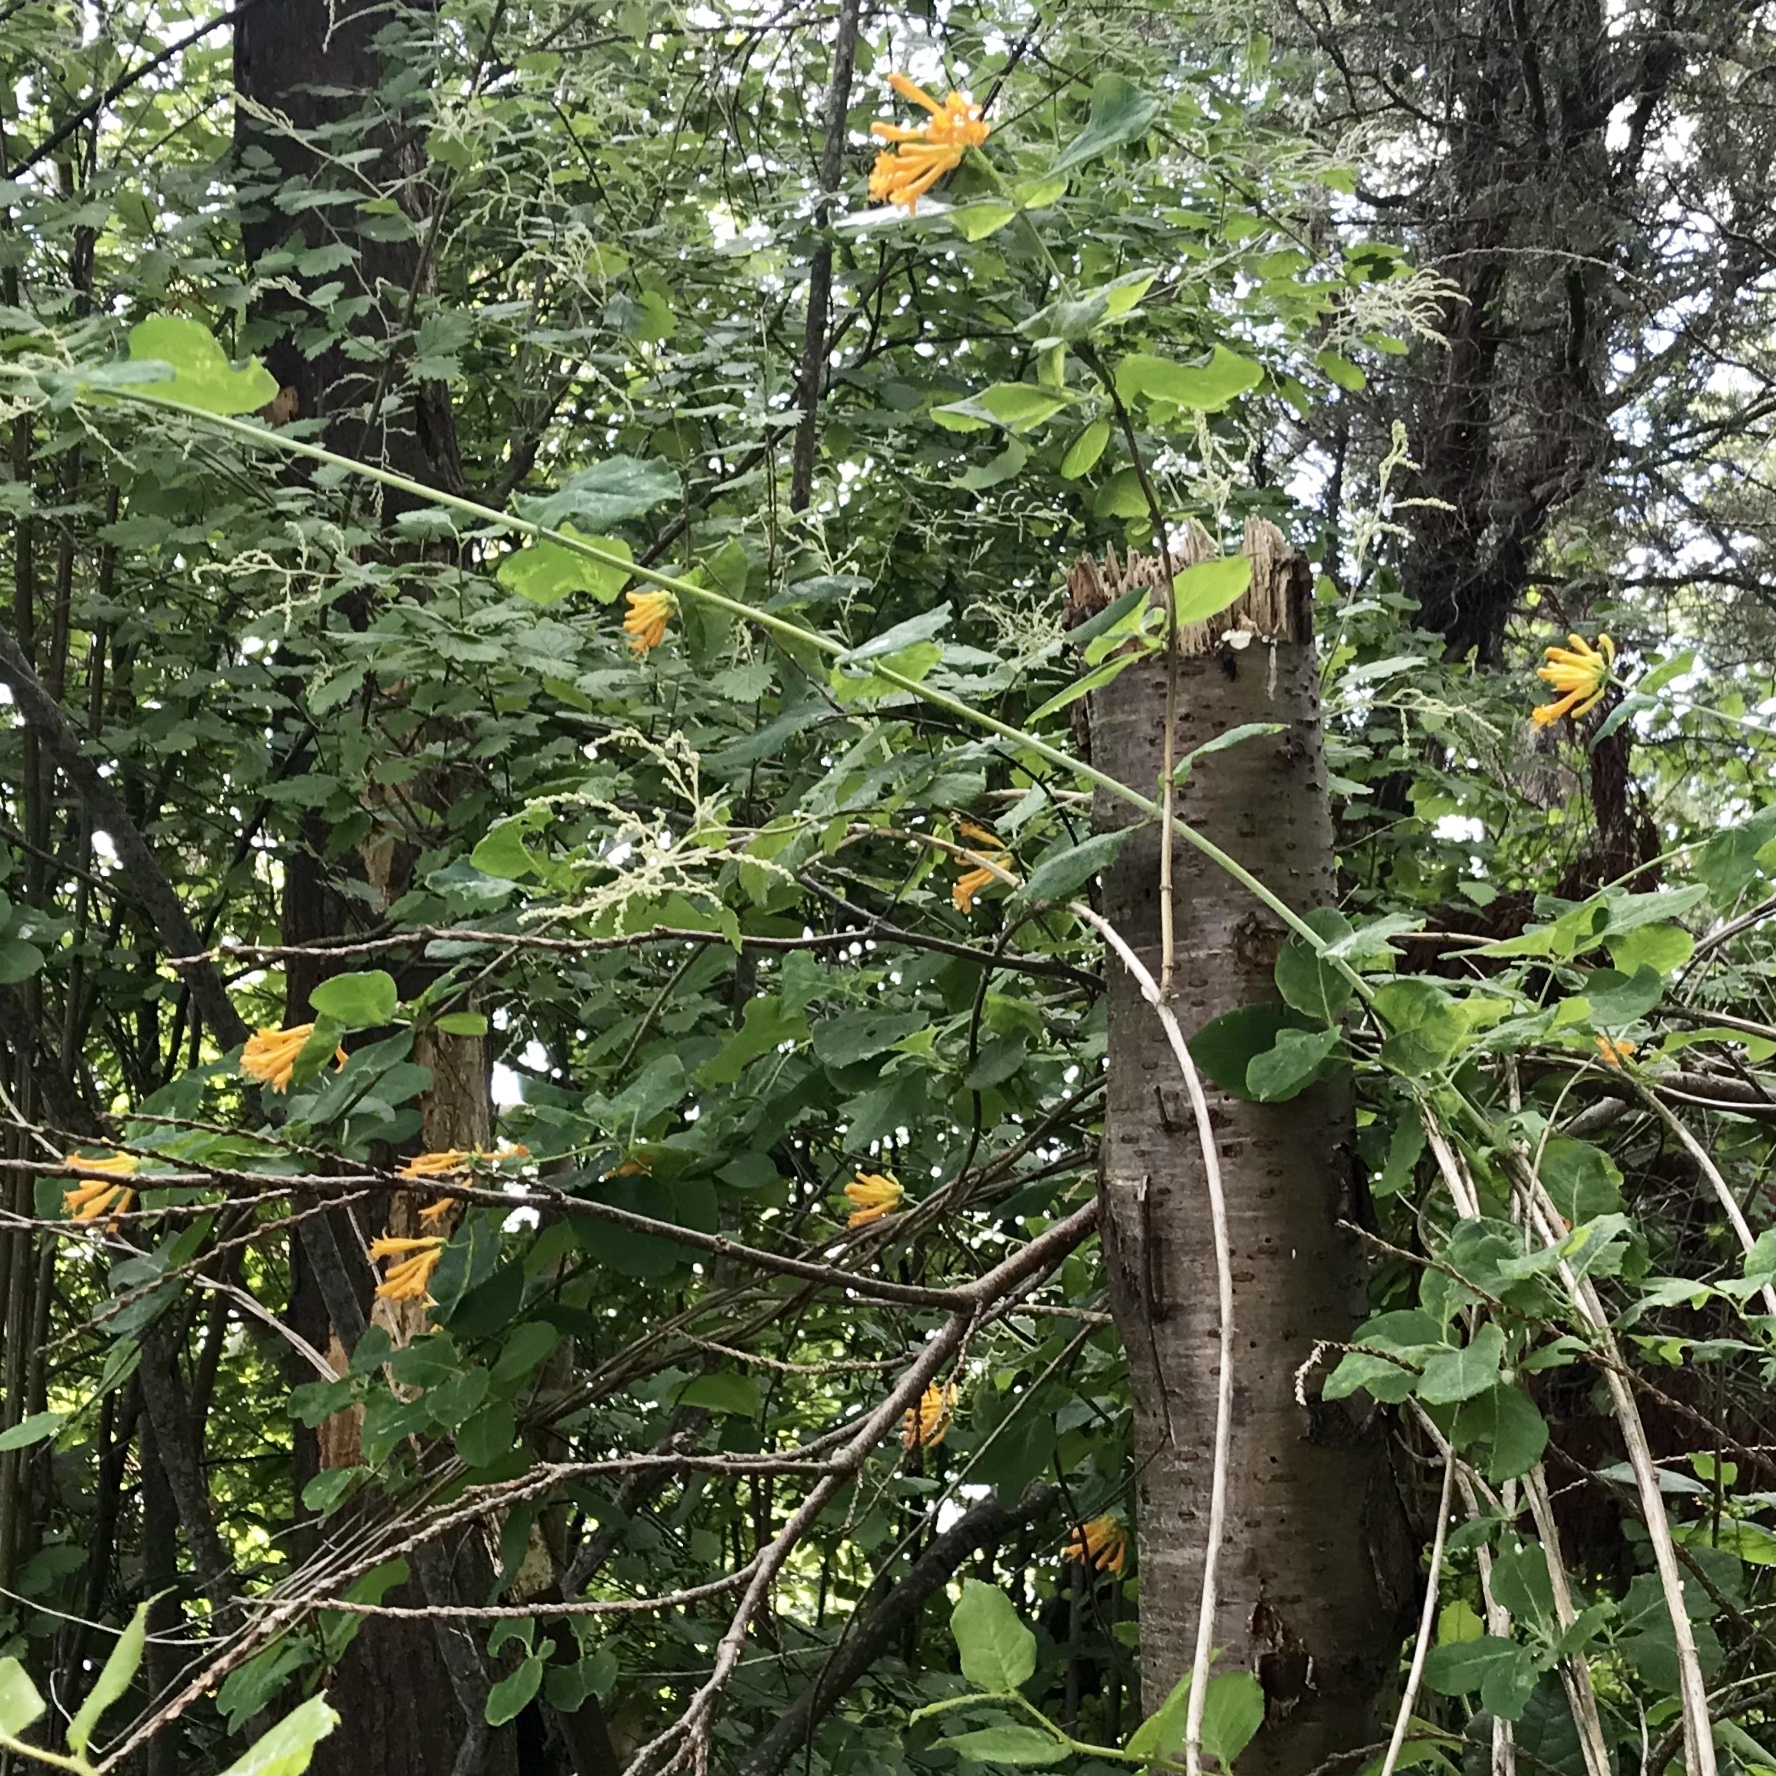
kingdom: Plantae
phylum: Tracheophyta
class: Magnoliopsida
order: Dipsacales
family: Caprifoliaceae
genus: Lonicera
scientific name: Lonicera ciliosa
